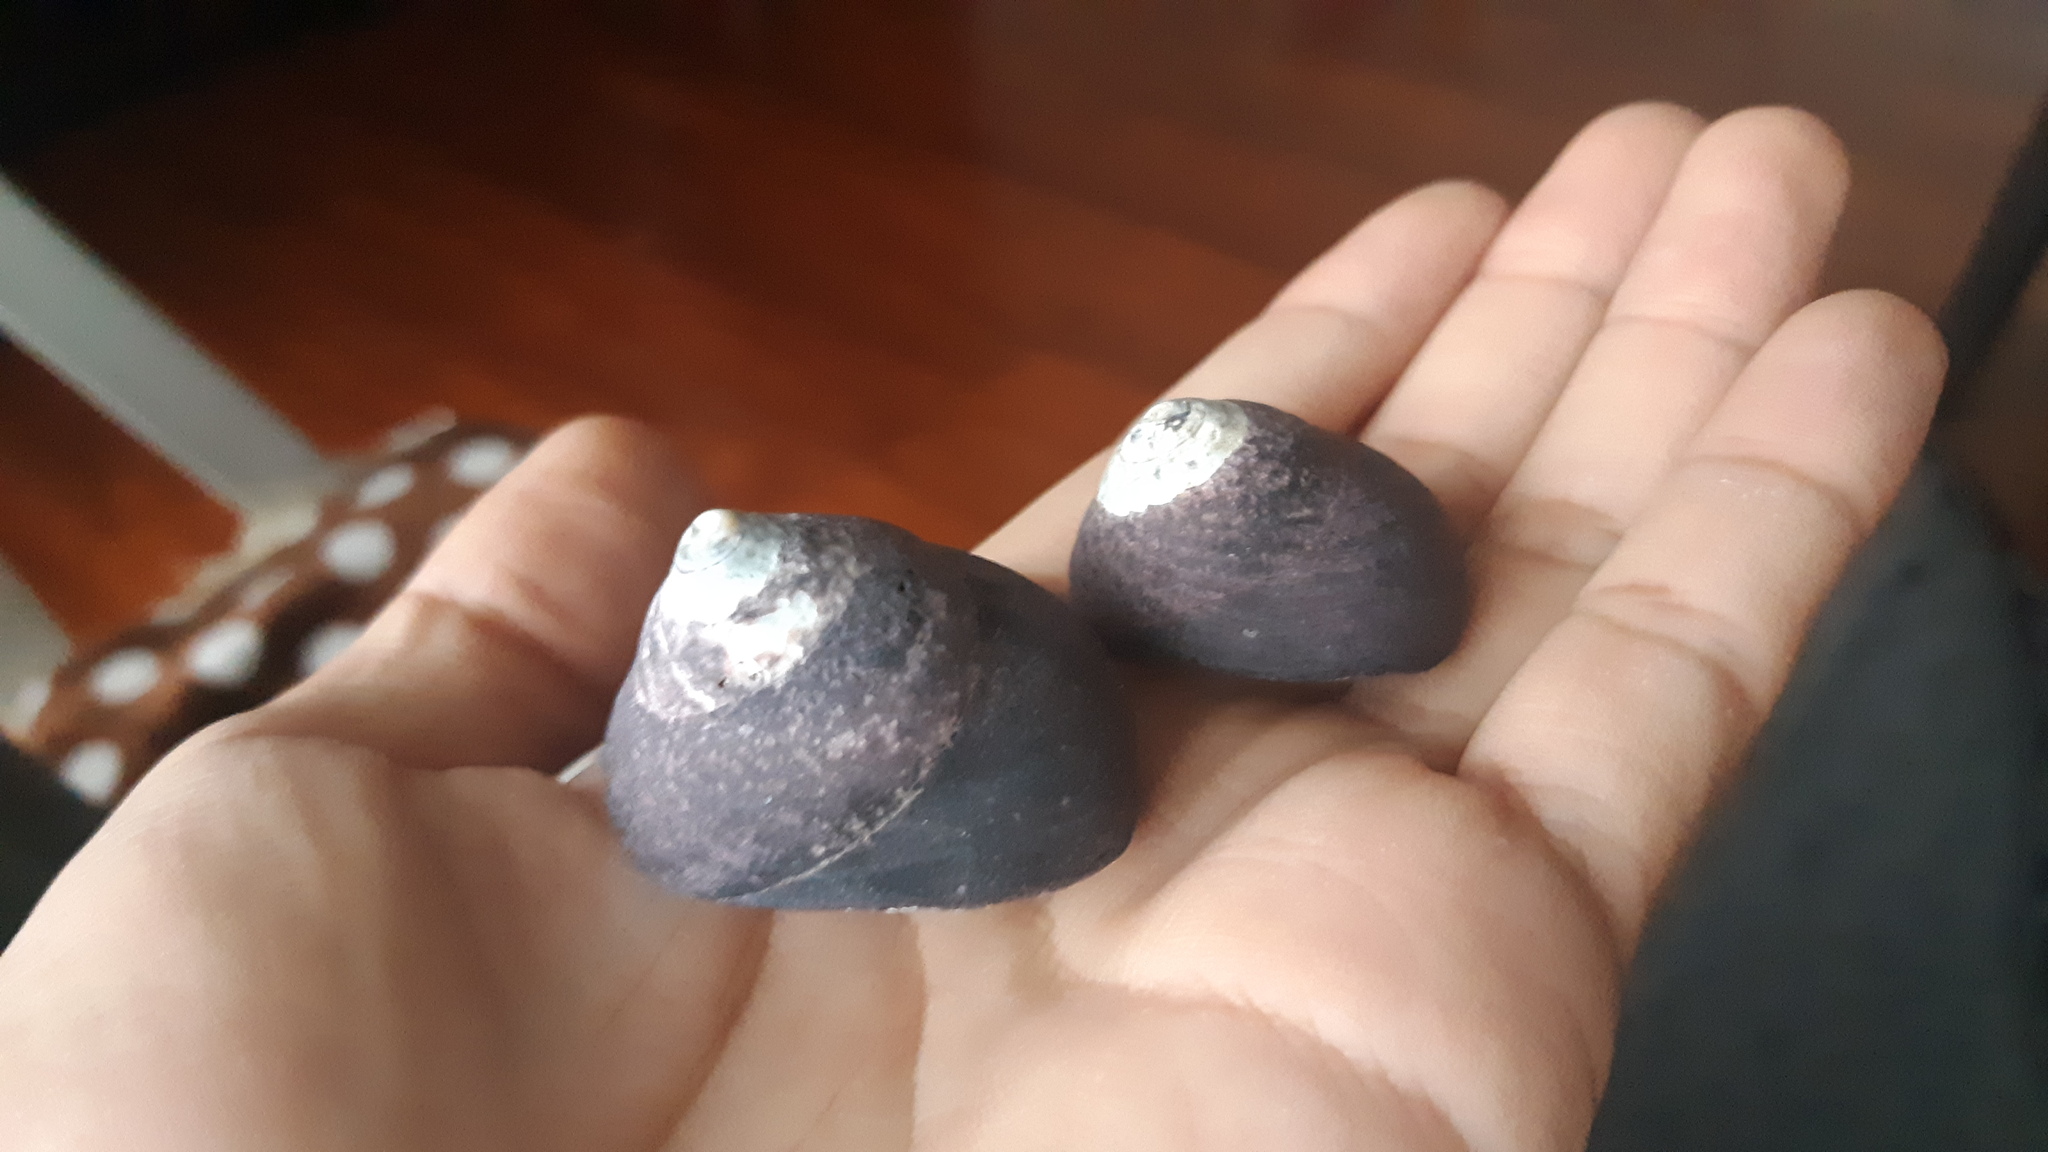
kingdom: Animalia
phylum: Mollusca
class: Gastropoda
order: Trochida
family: Tegulidae
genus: Tegula
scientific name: Tegula atra
